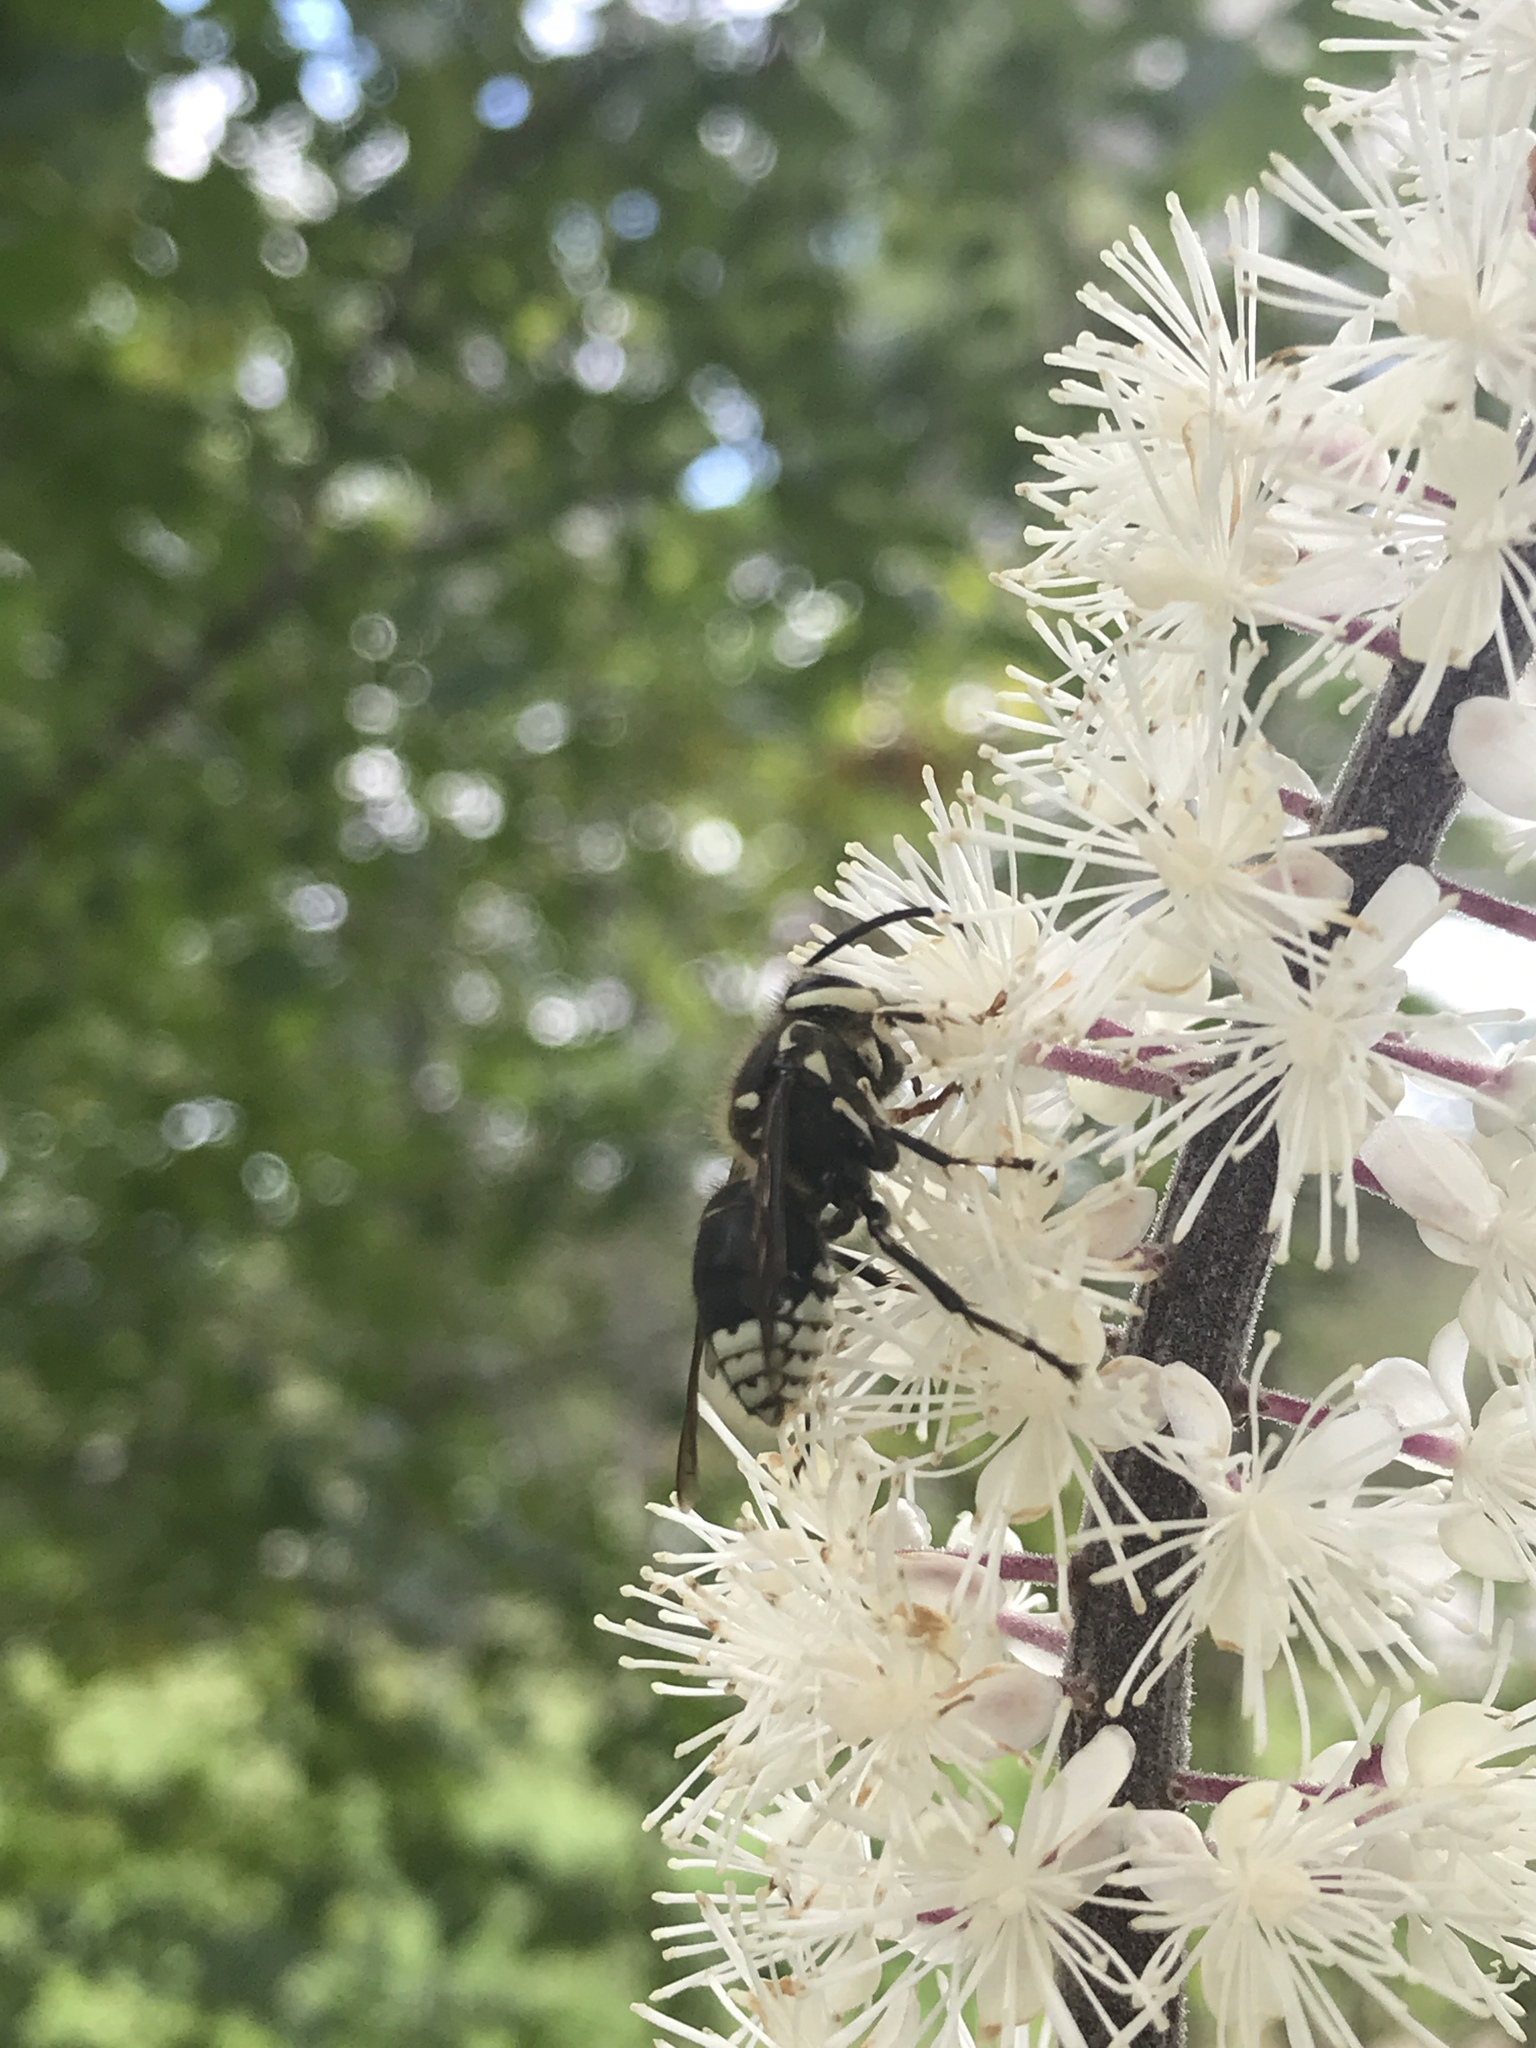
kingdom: Animalia
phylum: Arthropoda
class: Insecta
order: Hymenoptera
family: Vespidae
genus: Dolichovespula
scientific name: Dolichovespula maculata
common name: Bald-faced hornet
